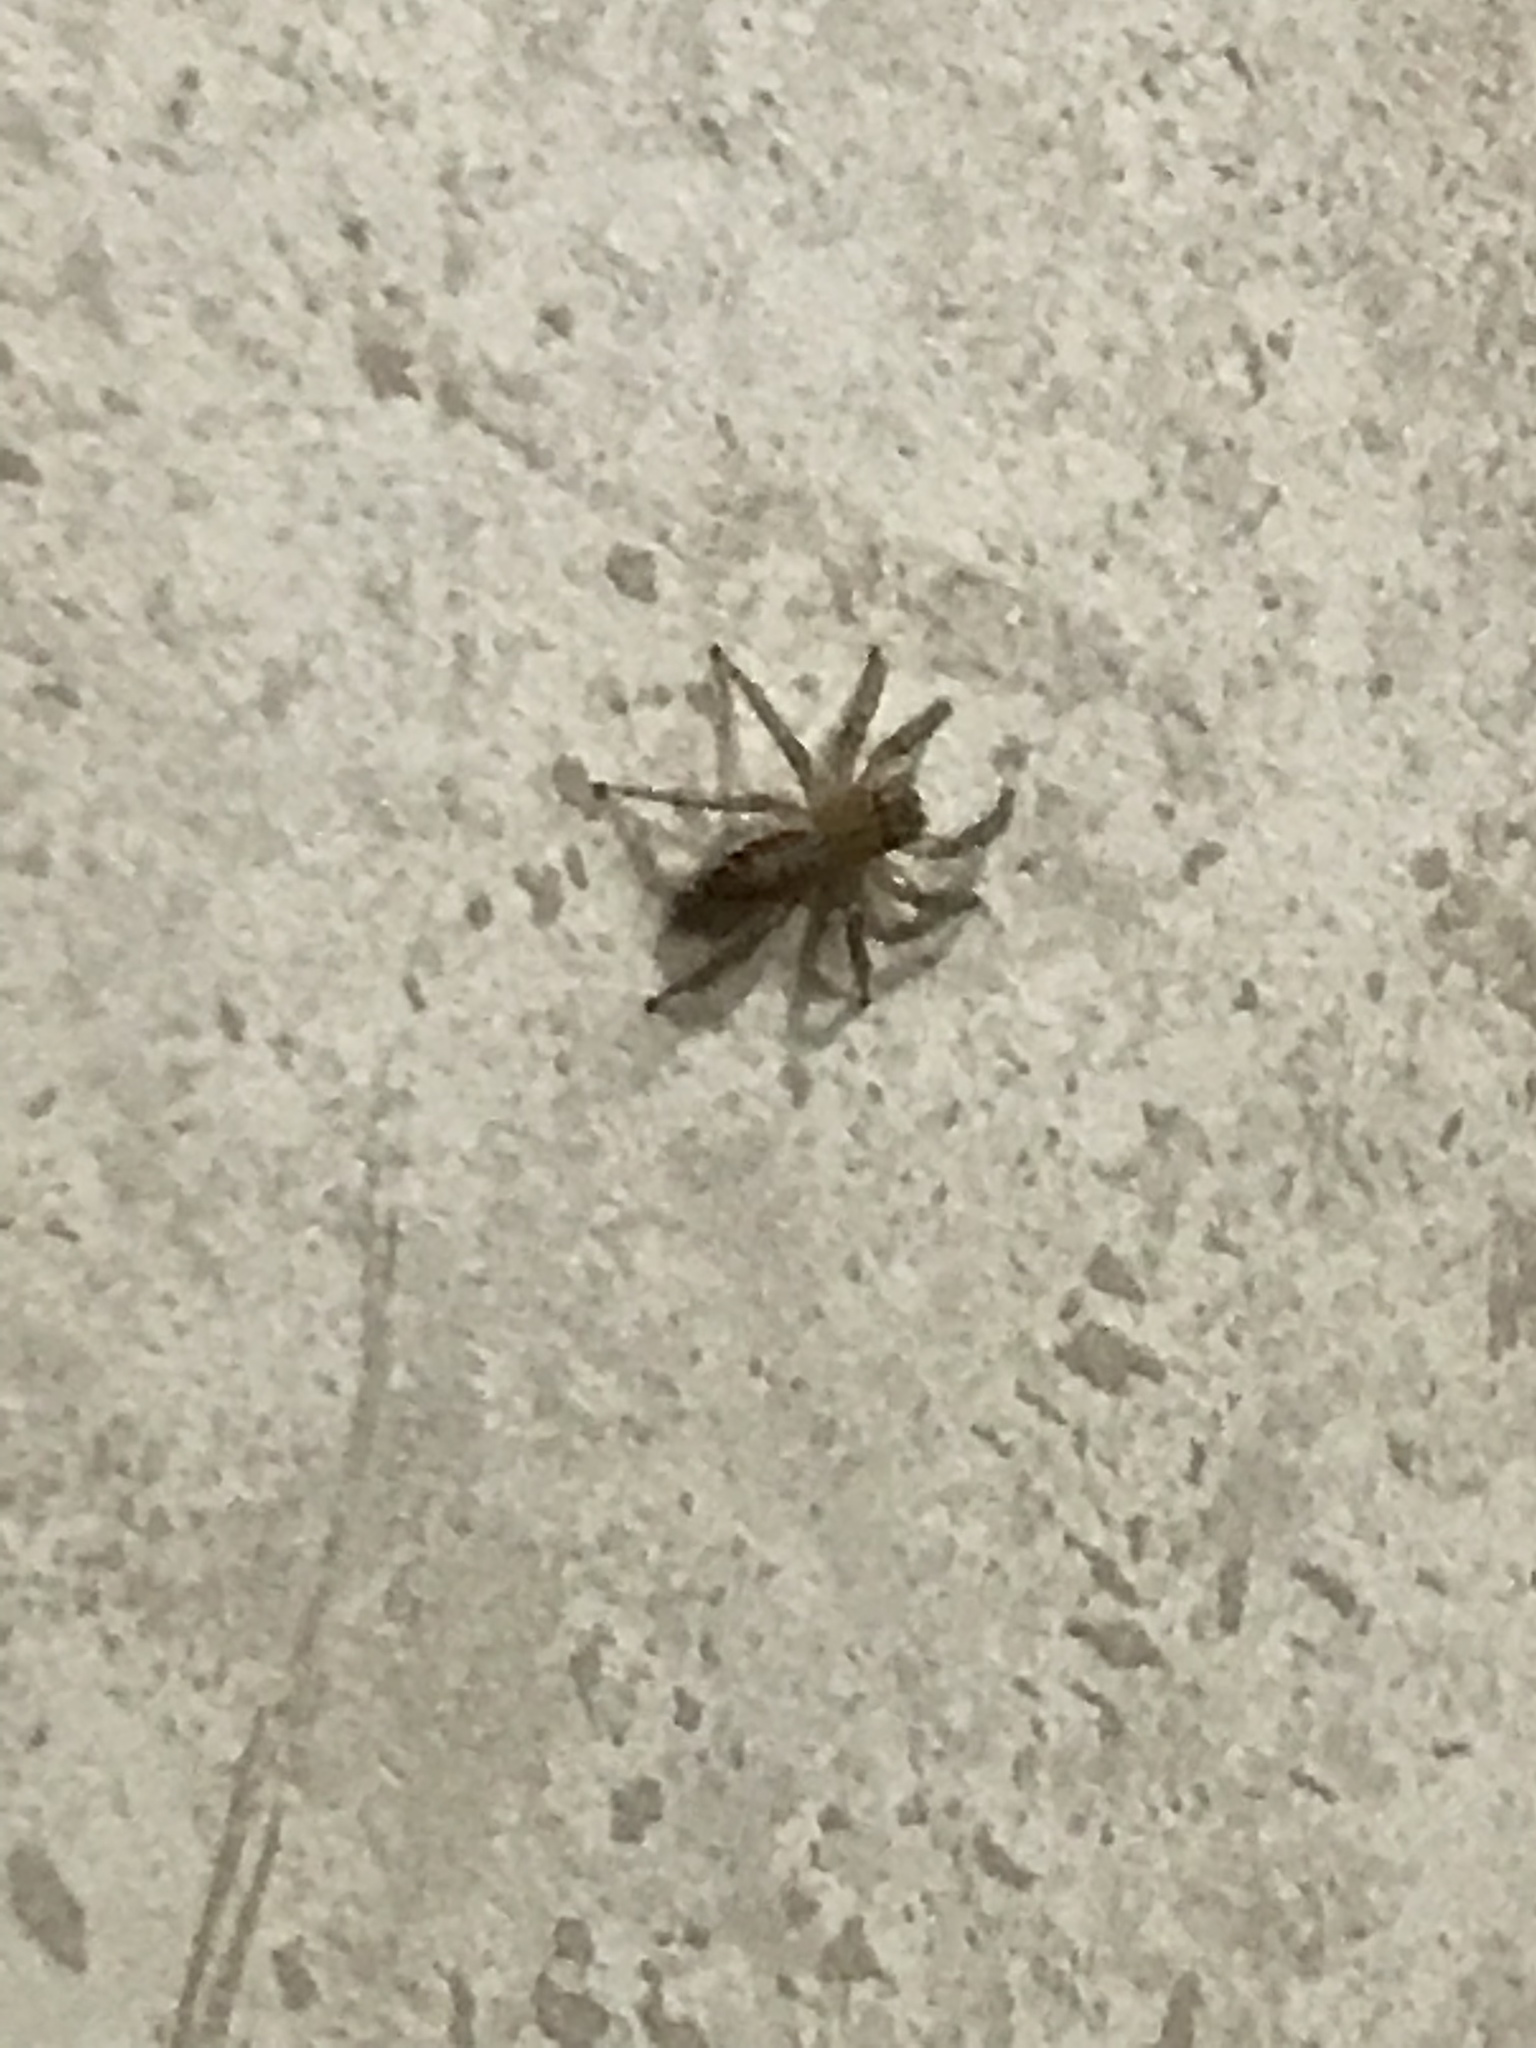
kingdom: Animalia
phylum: Arthropoda
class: Arachnida
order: Araneae
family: Salticidae
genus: Maevia
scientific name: Maevia inclemens
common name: Dimorphic jumper
